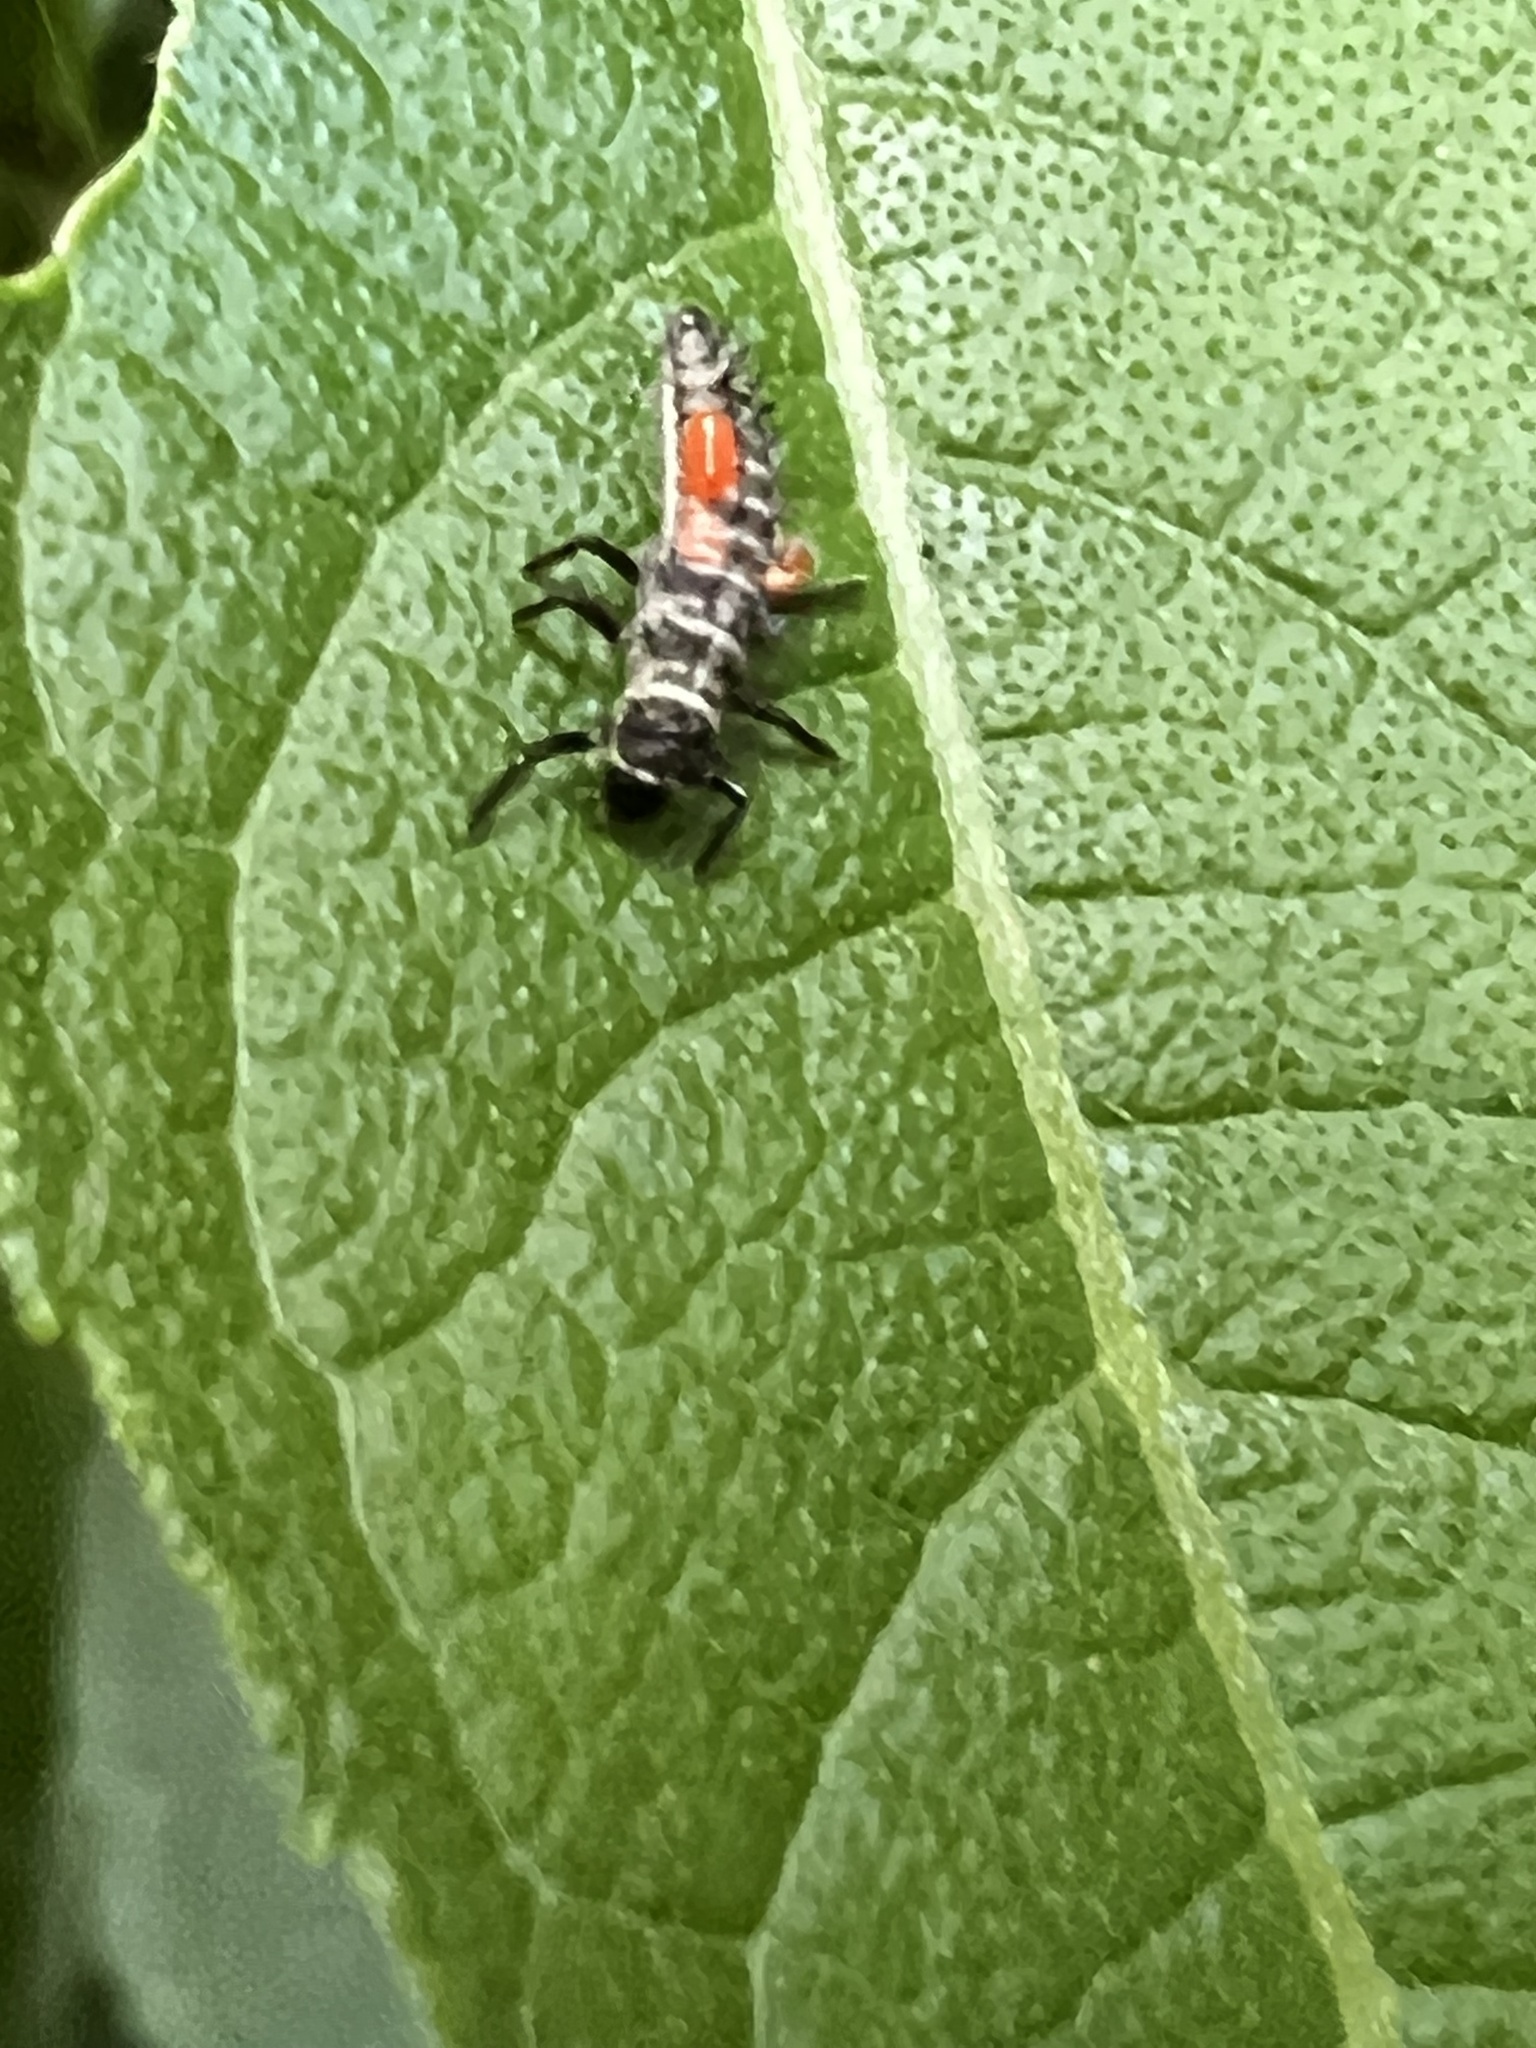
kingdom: Animalia
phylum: Arthropoda
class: Insecta
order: Coleoptera
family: Coccinellidae
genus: Harmonia
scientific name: Harmonia axyridis
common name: Harlequin ladybird
